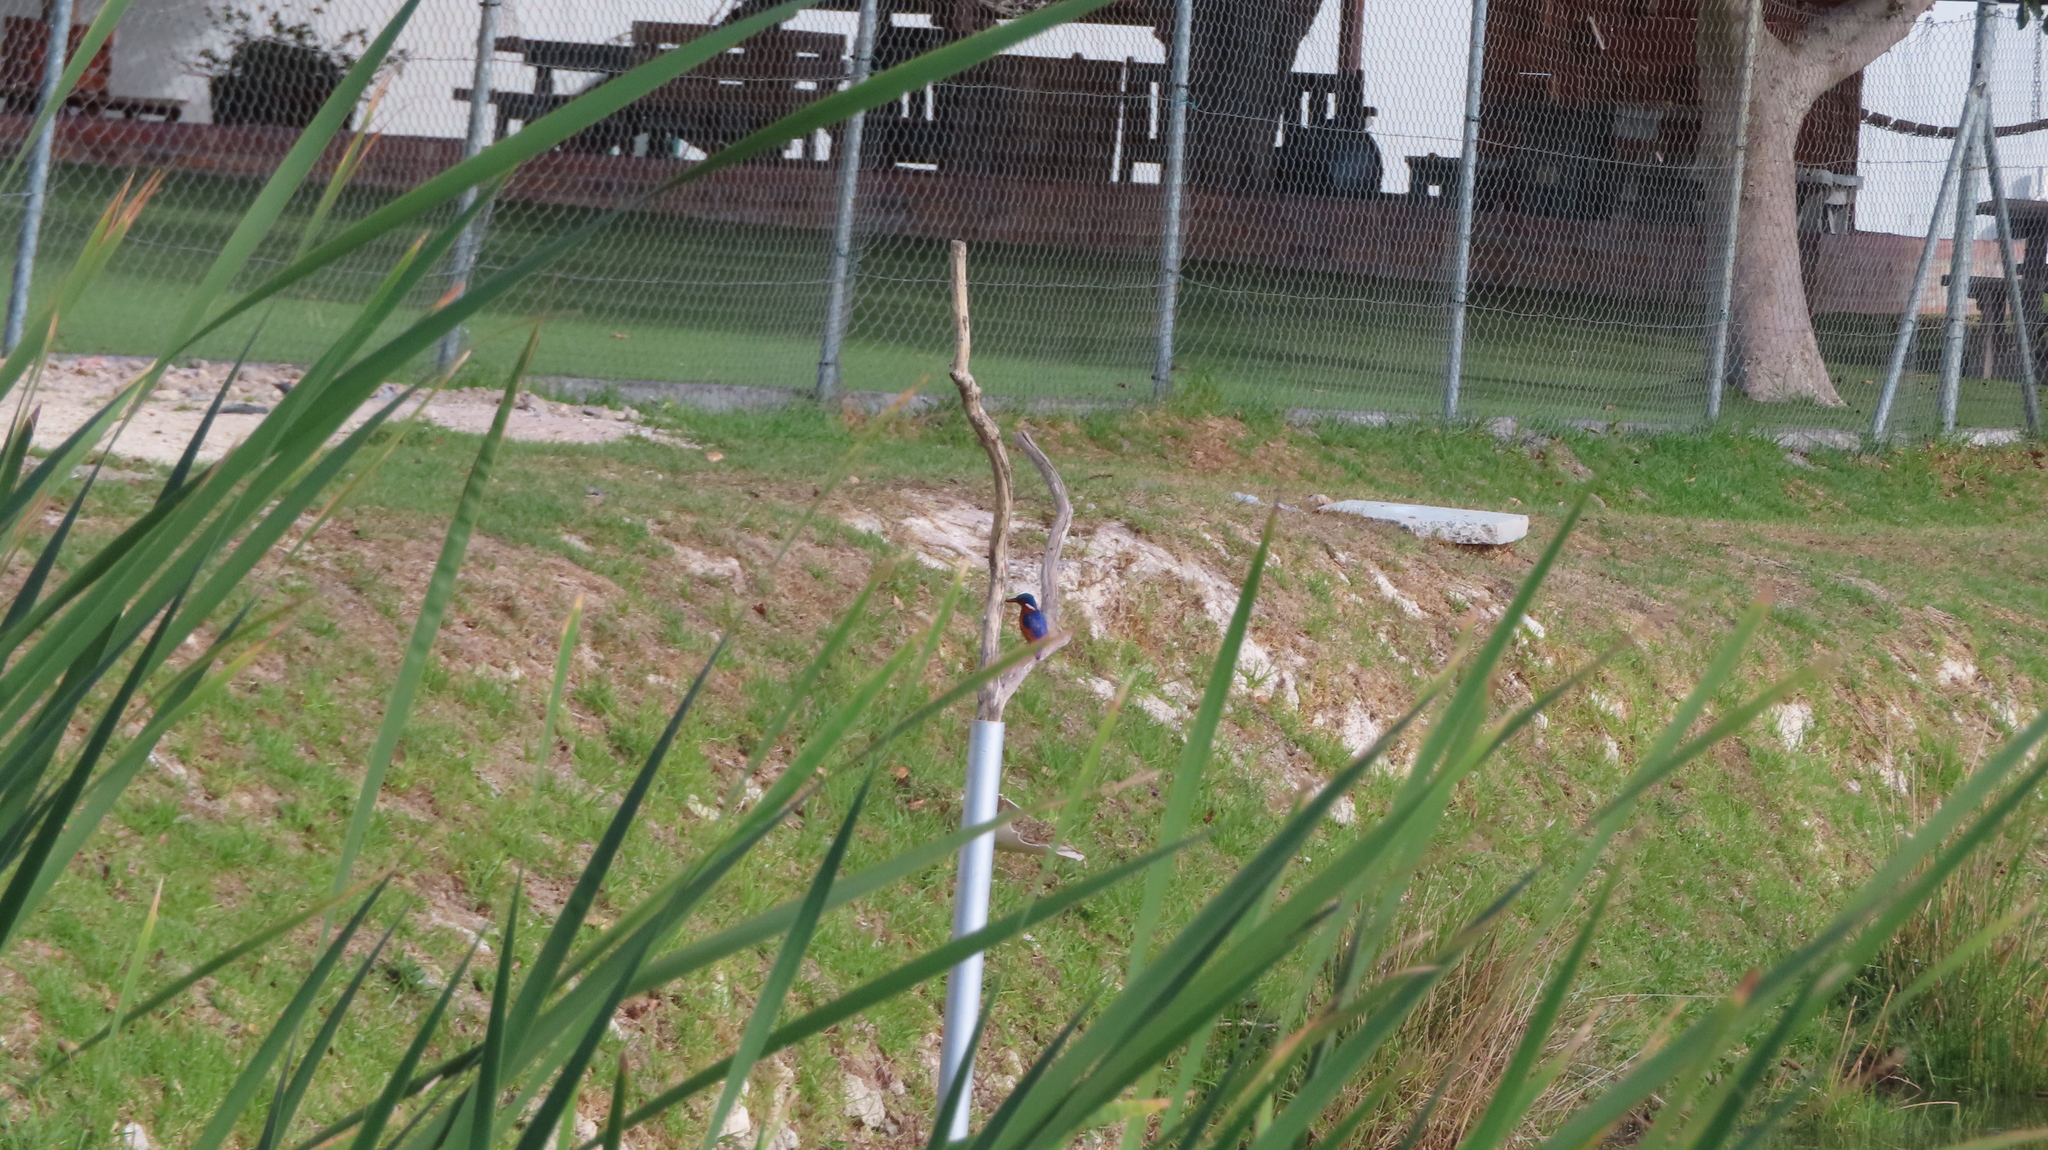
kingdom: Animalia
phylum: Chordata
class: Aves
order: Coraciiformes
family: Alcedinidae
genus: Corythornis
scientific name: Corythornis cristatus
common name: Malachite kingfisher
